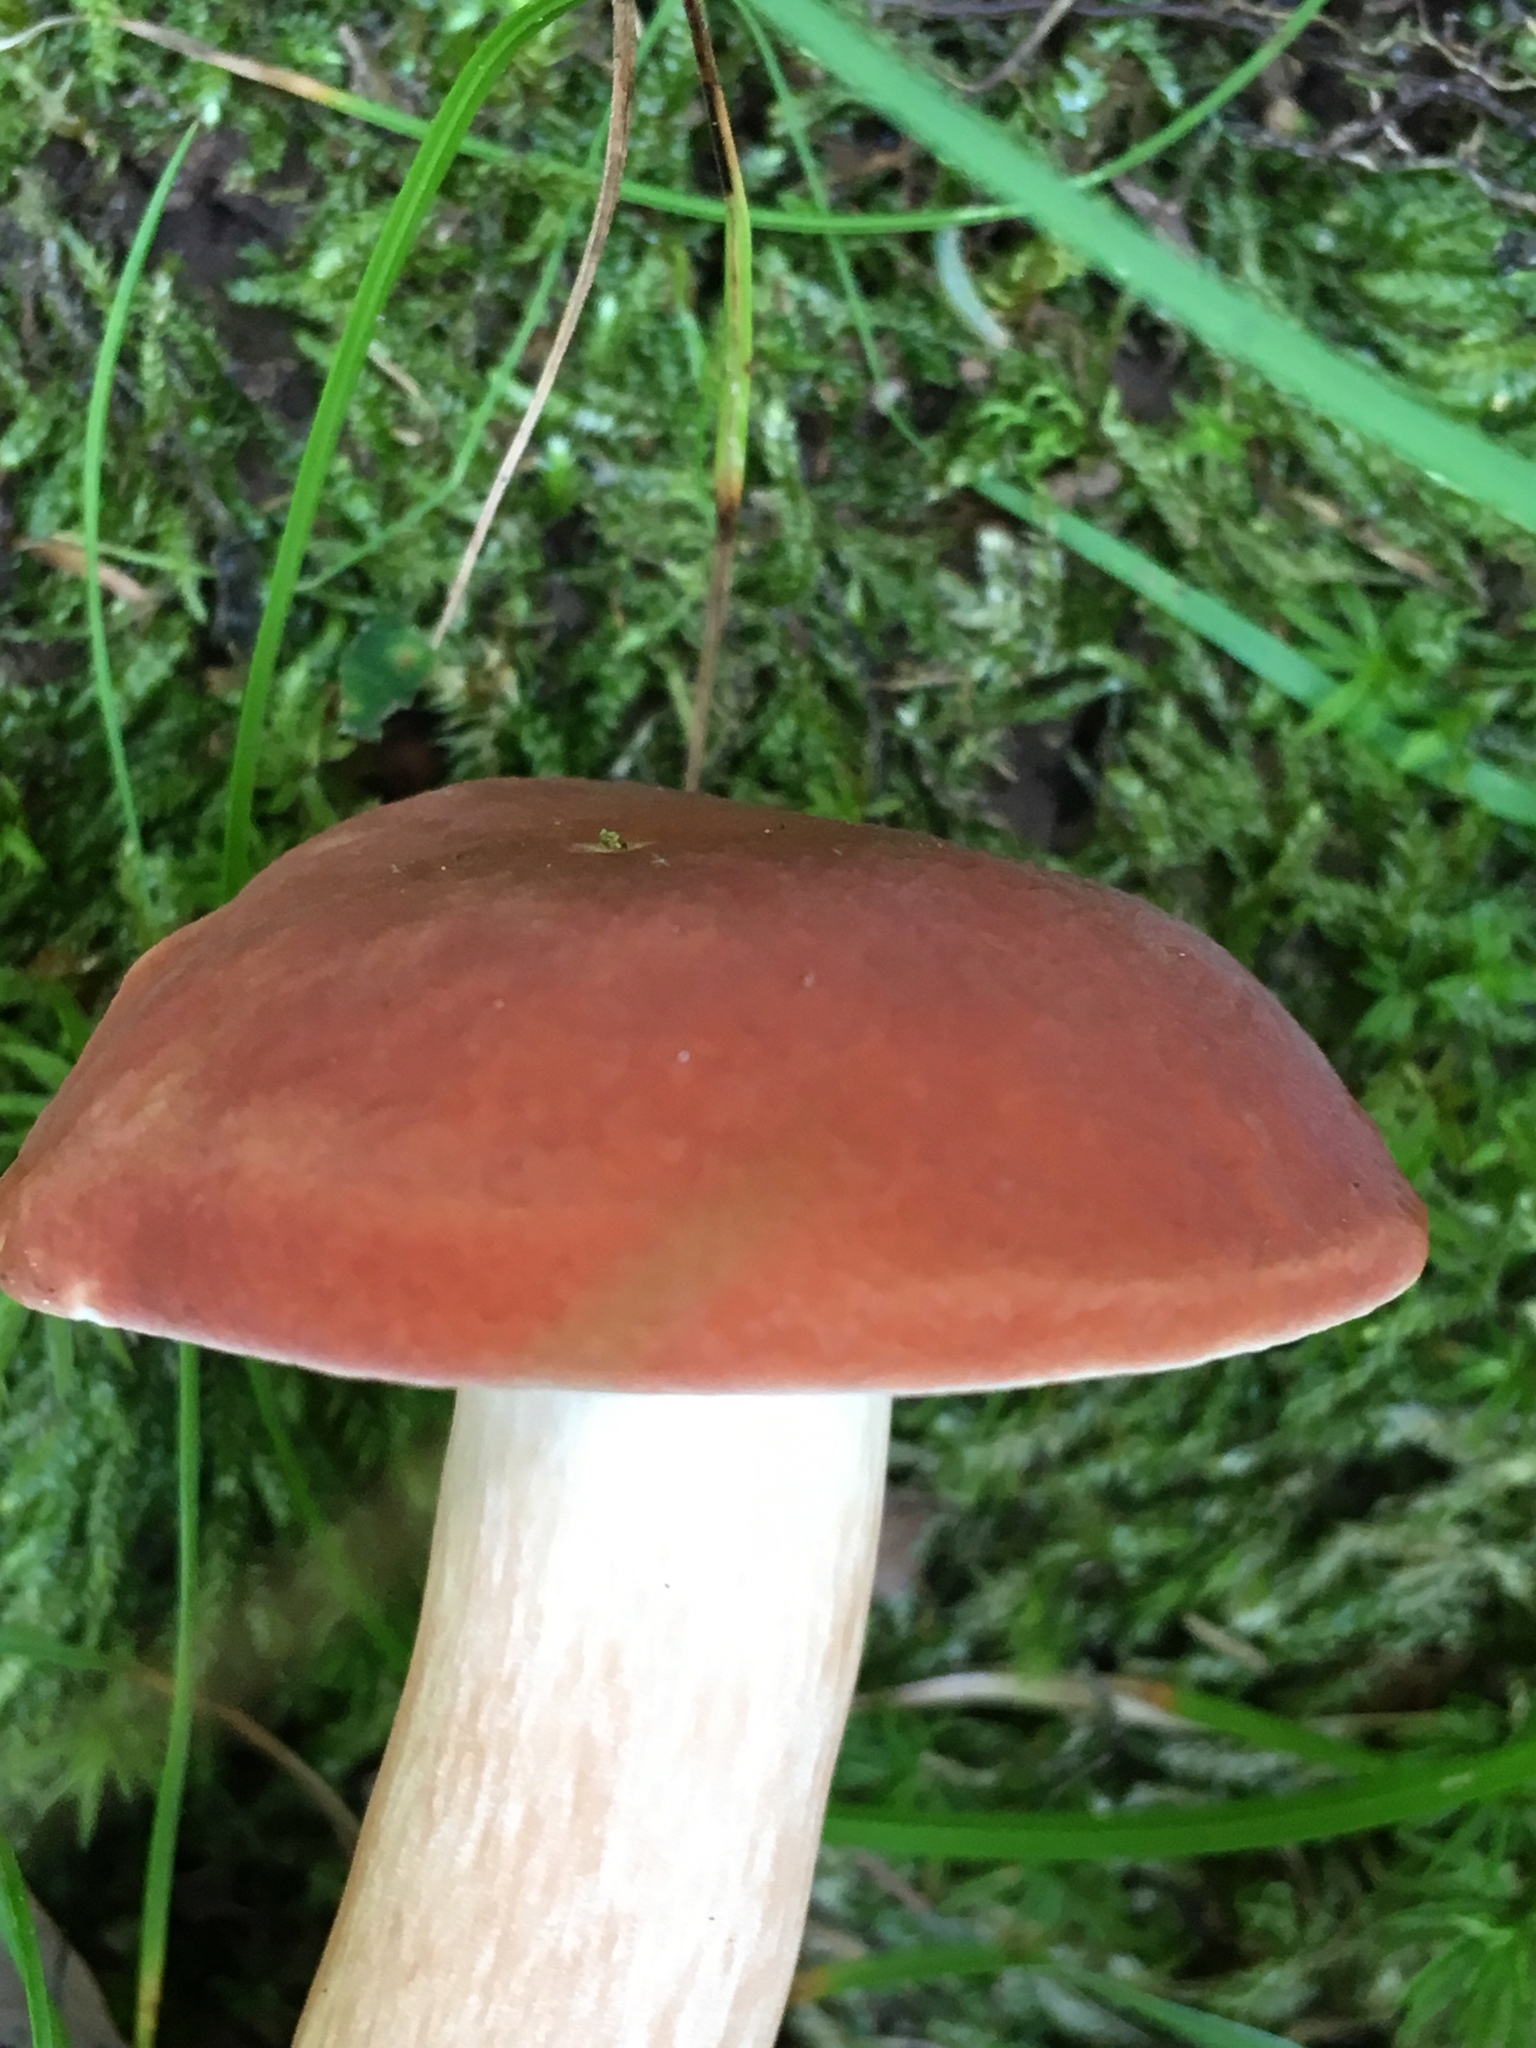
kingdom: Fungi
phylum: Basidiomycota
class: Agaricomycetes
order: Boletales
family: Boletaceae
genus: Xanthoconium
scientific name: Xanthoconium separans
